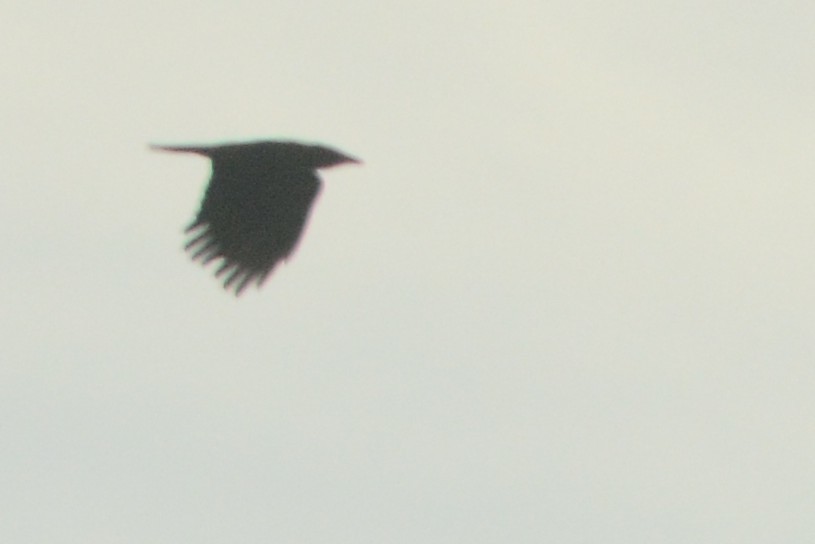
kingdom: Animalia
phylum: Chordata
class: Aves
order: Passeriformes
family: Corvidae
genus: Corvus
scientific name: Corvus brachyrhynchos
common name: American crow
